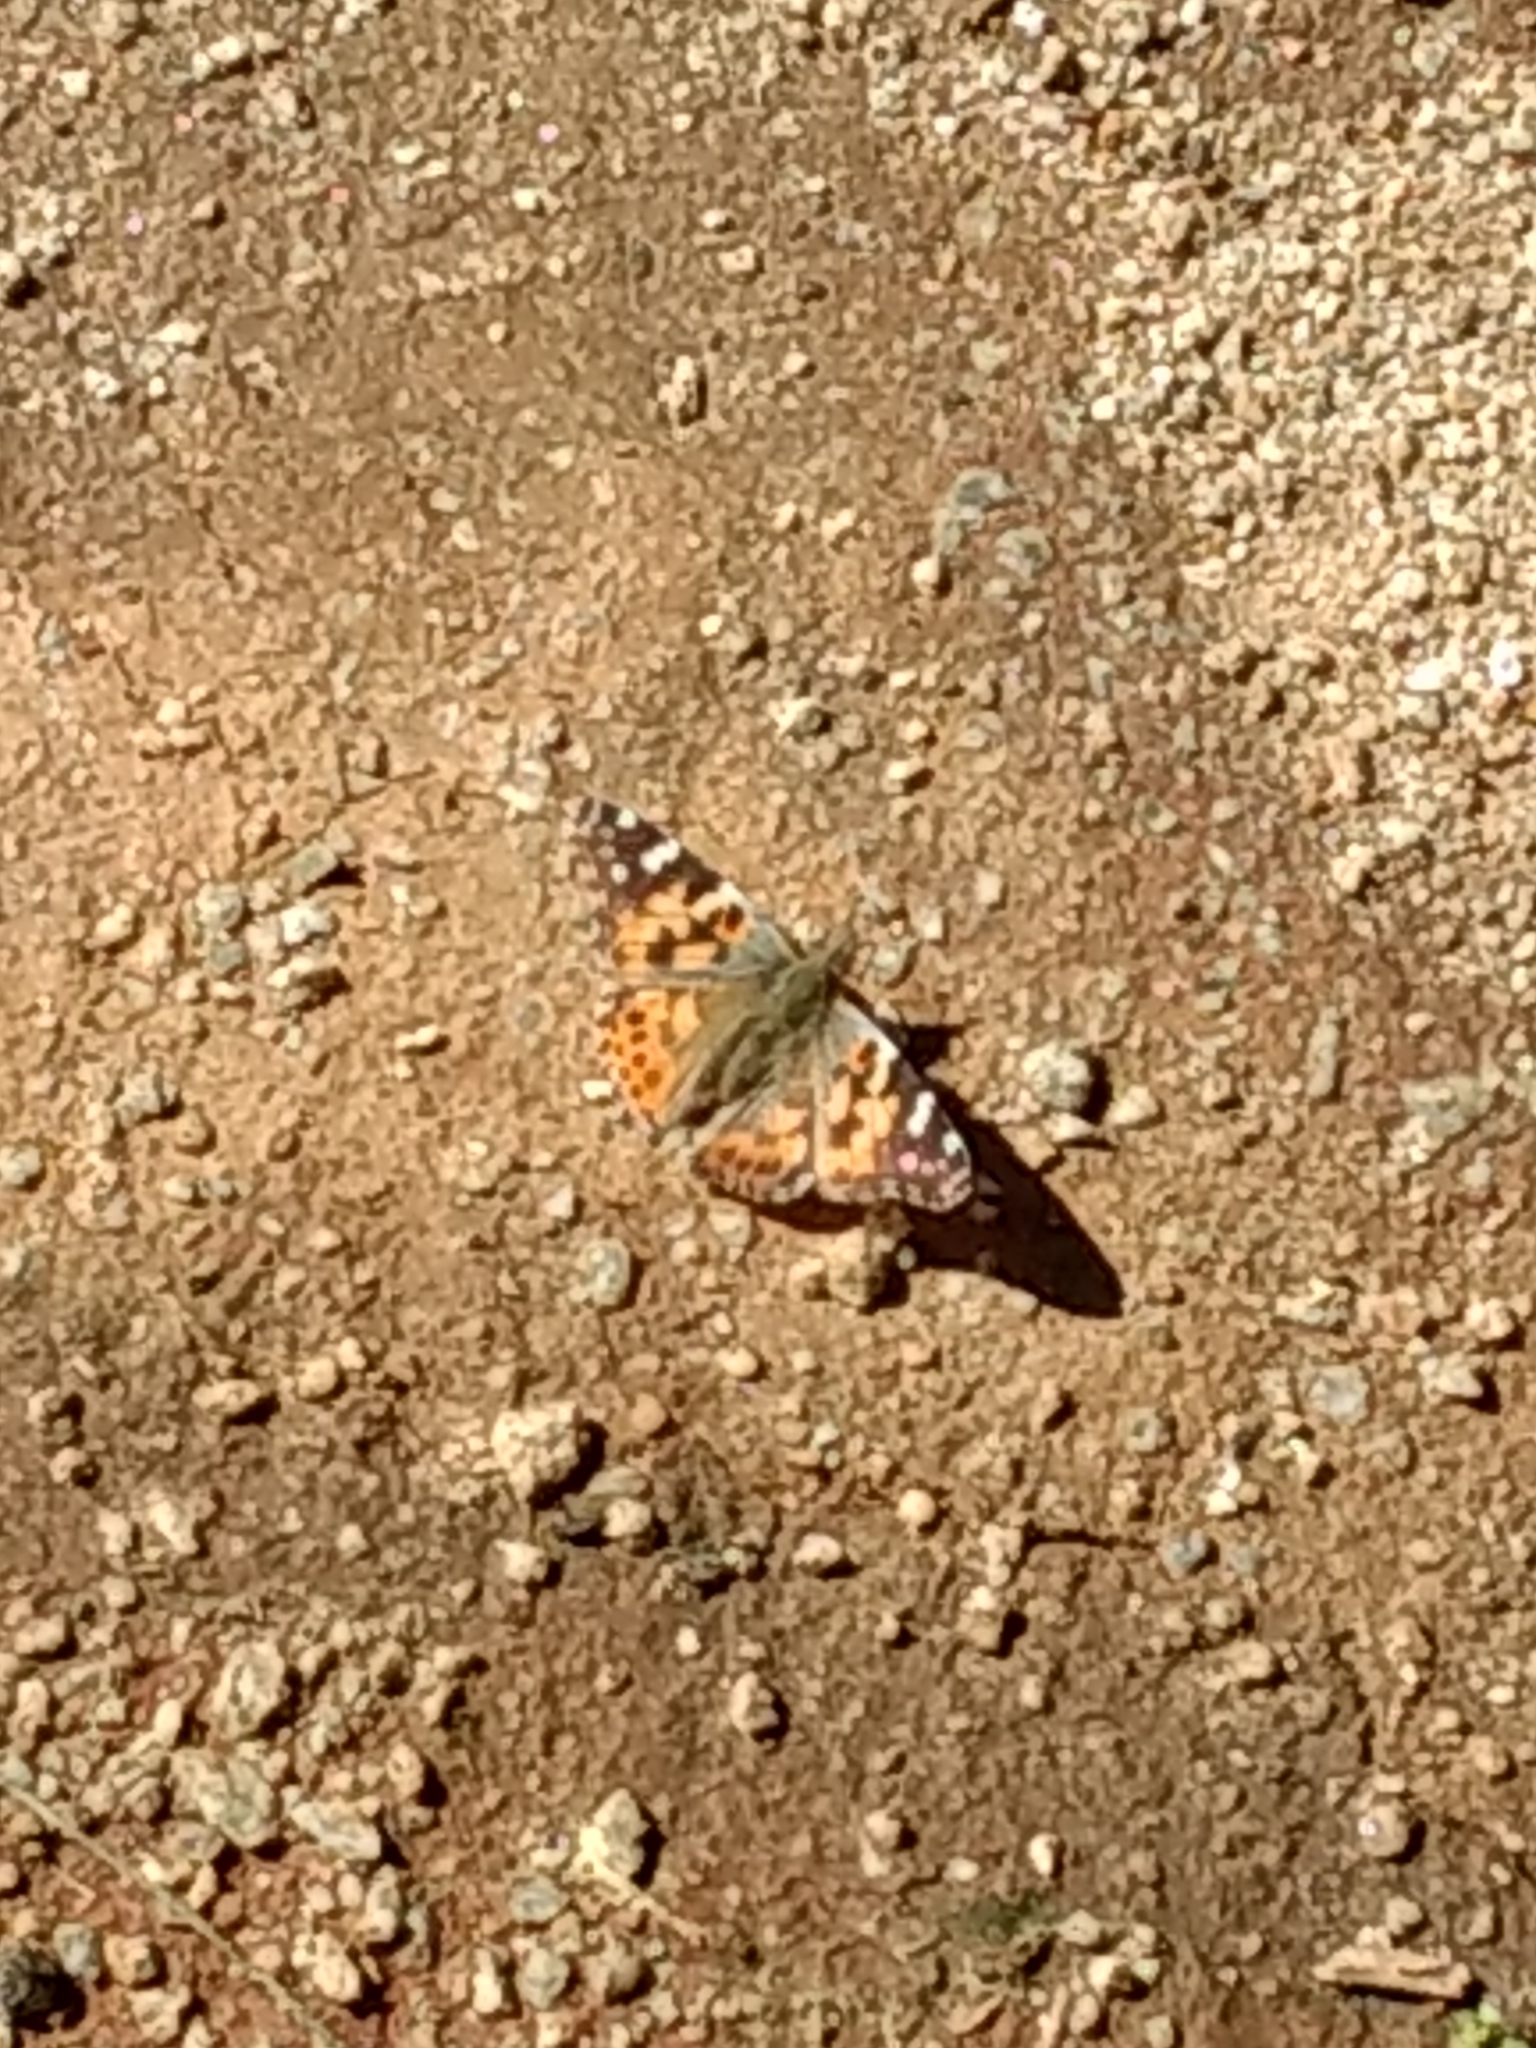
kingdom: Animalia
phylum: Arthropoda
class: Insecta
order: Lepidoptera
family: Nymphalidae
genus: Vanessa
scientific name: Vanessa cardui
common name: Painted lady
